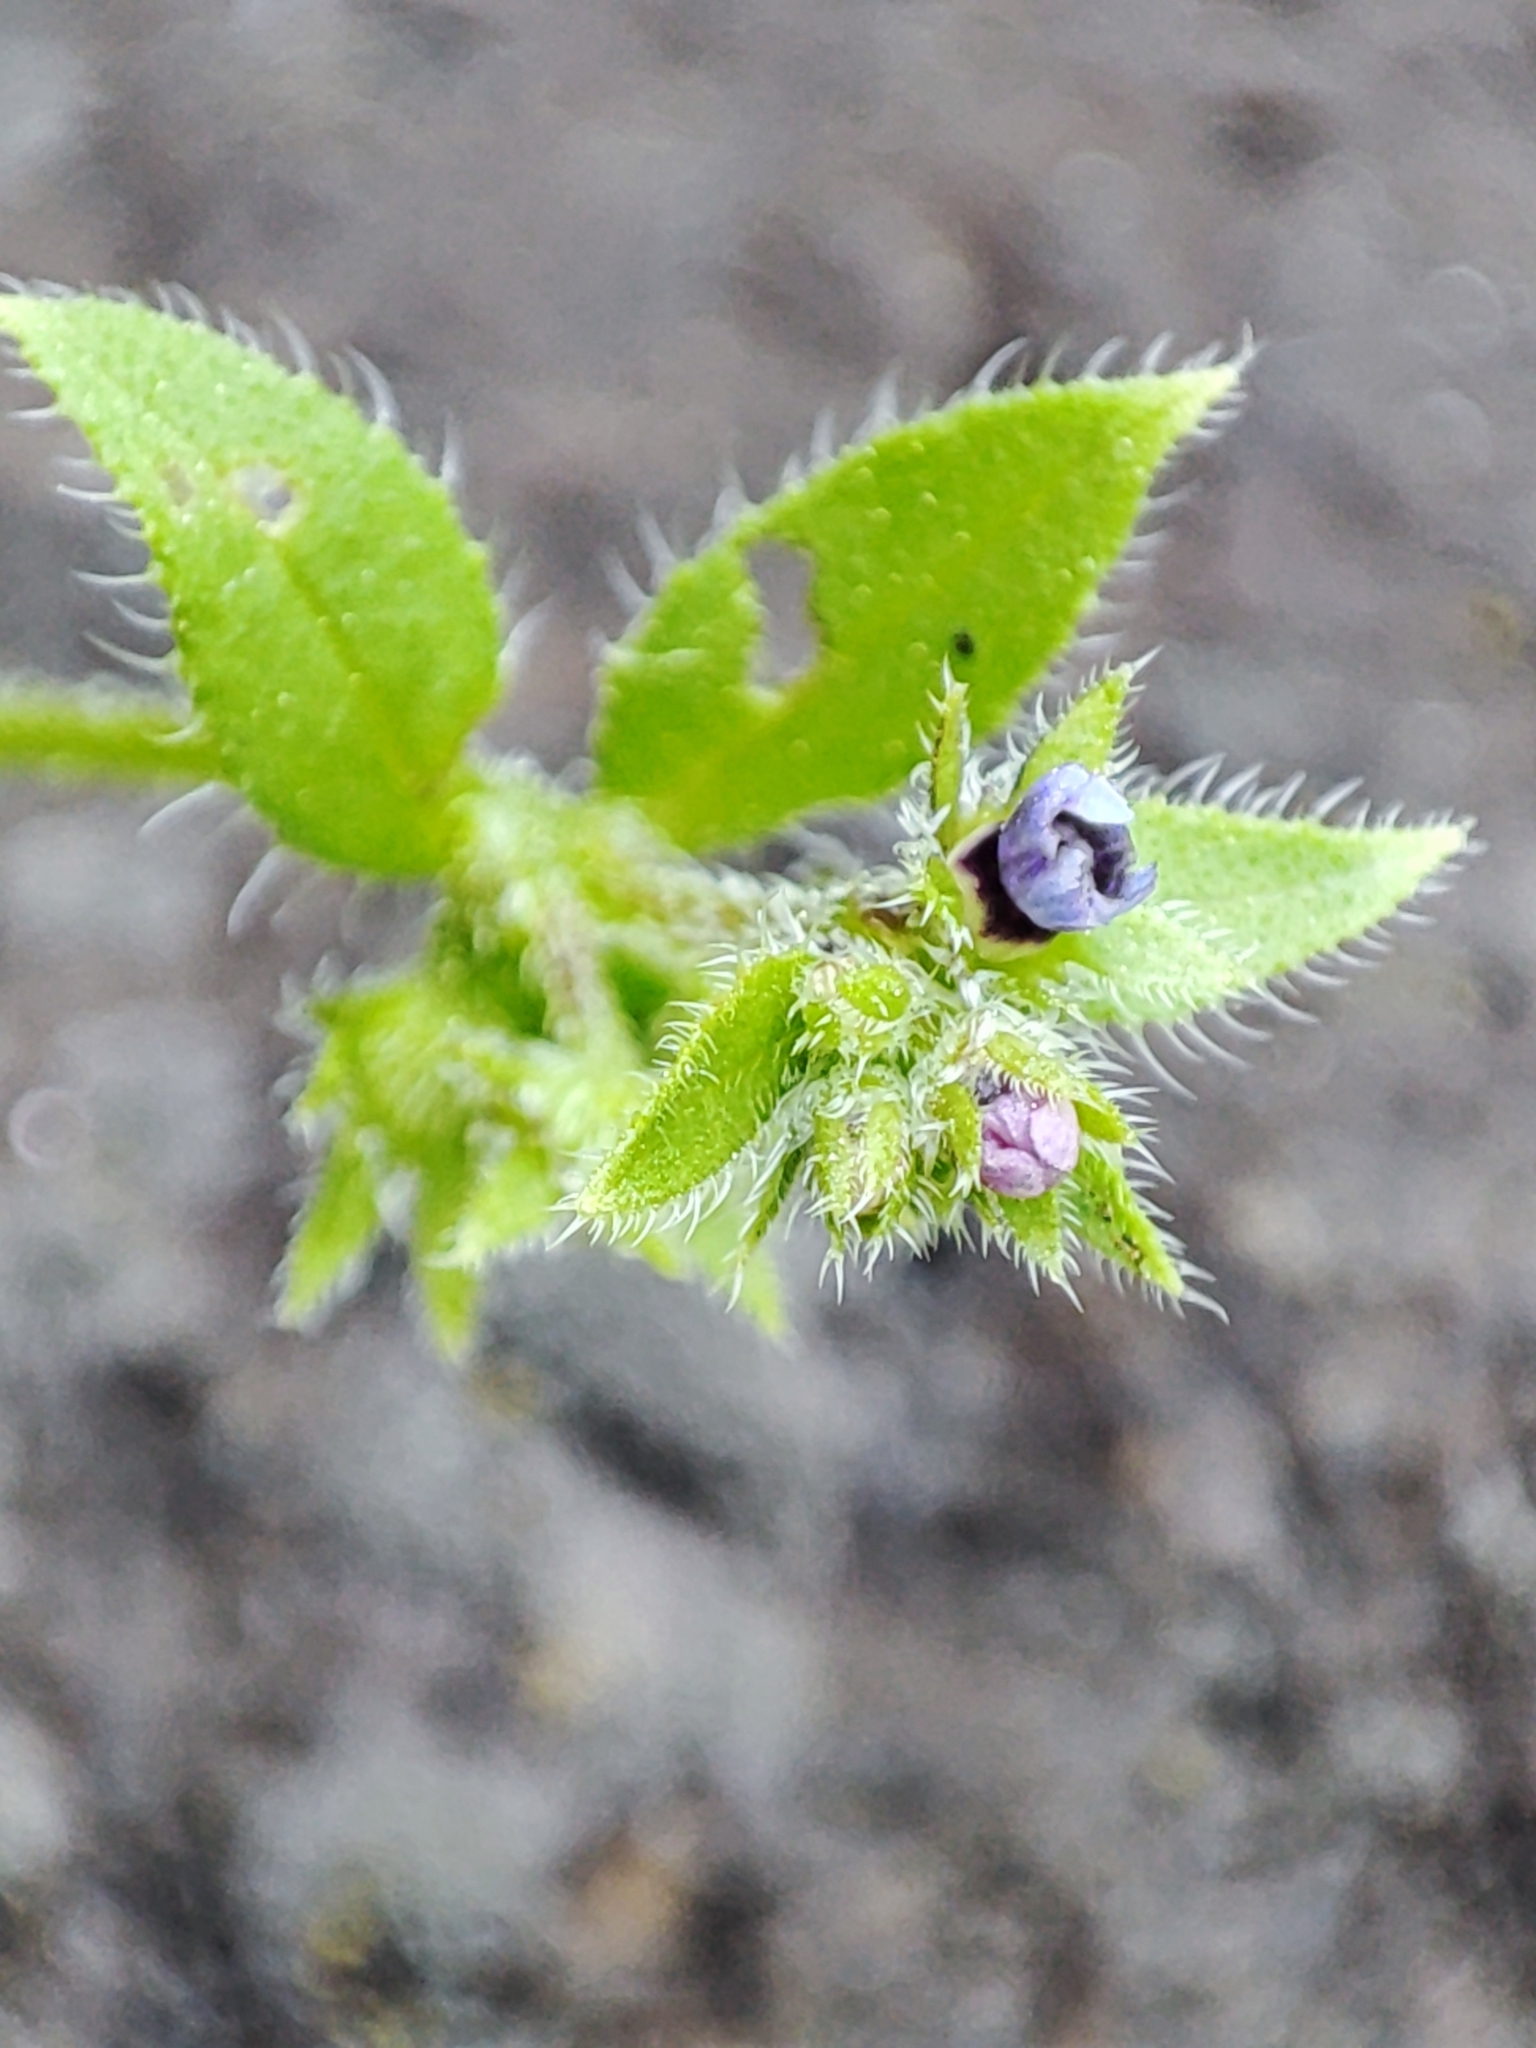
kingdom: Plantae
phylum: Tracheophyta
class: Magnoliopsida
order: Boraginales
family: Boraginaceae
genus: Asperugo
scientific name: Asperugo procumbens
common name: Madwort
